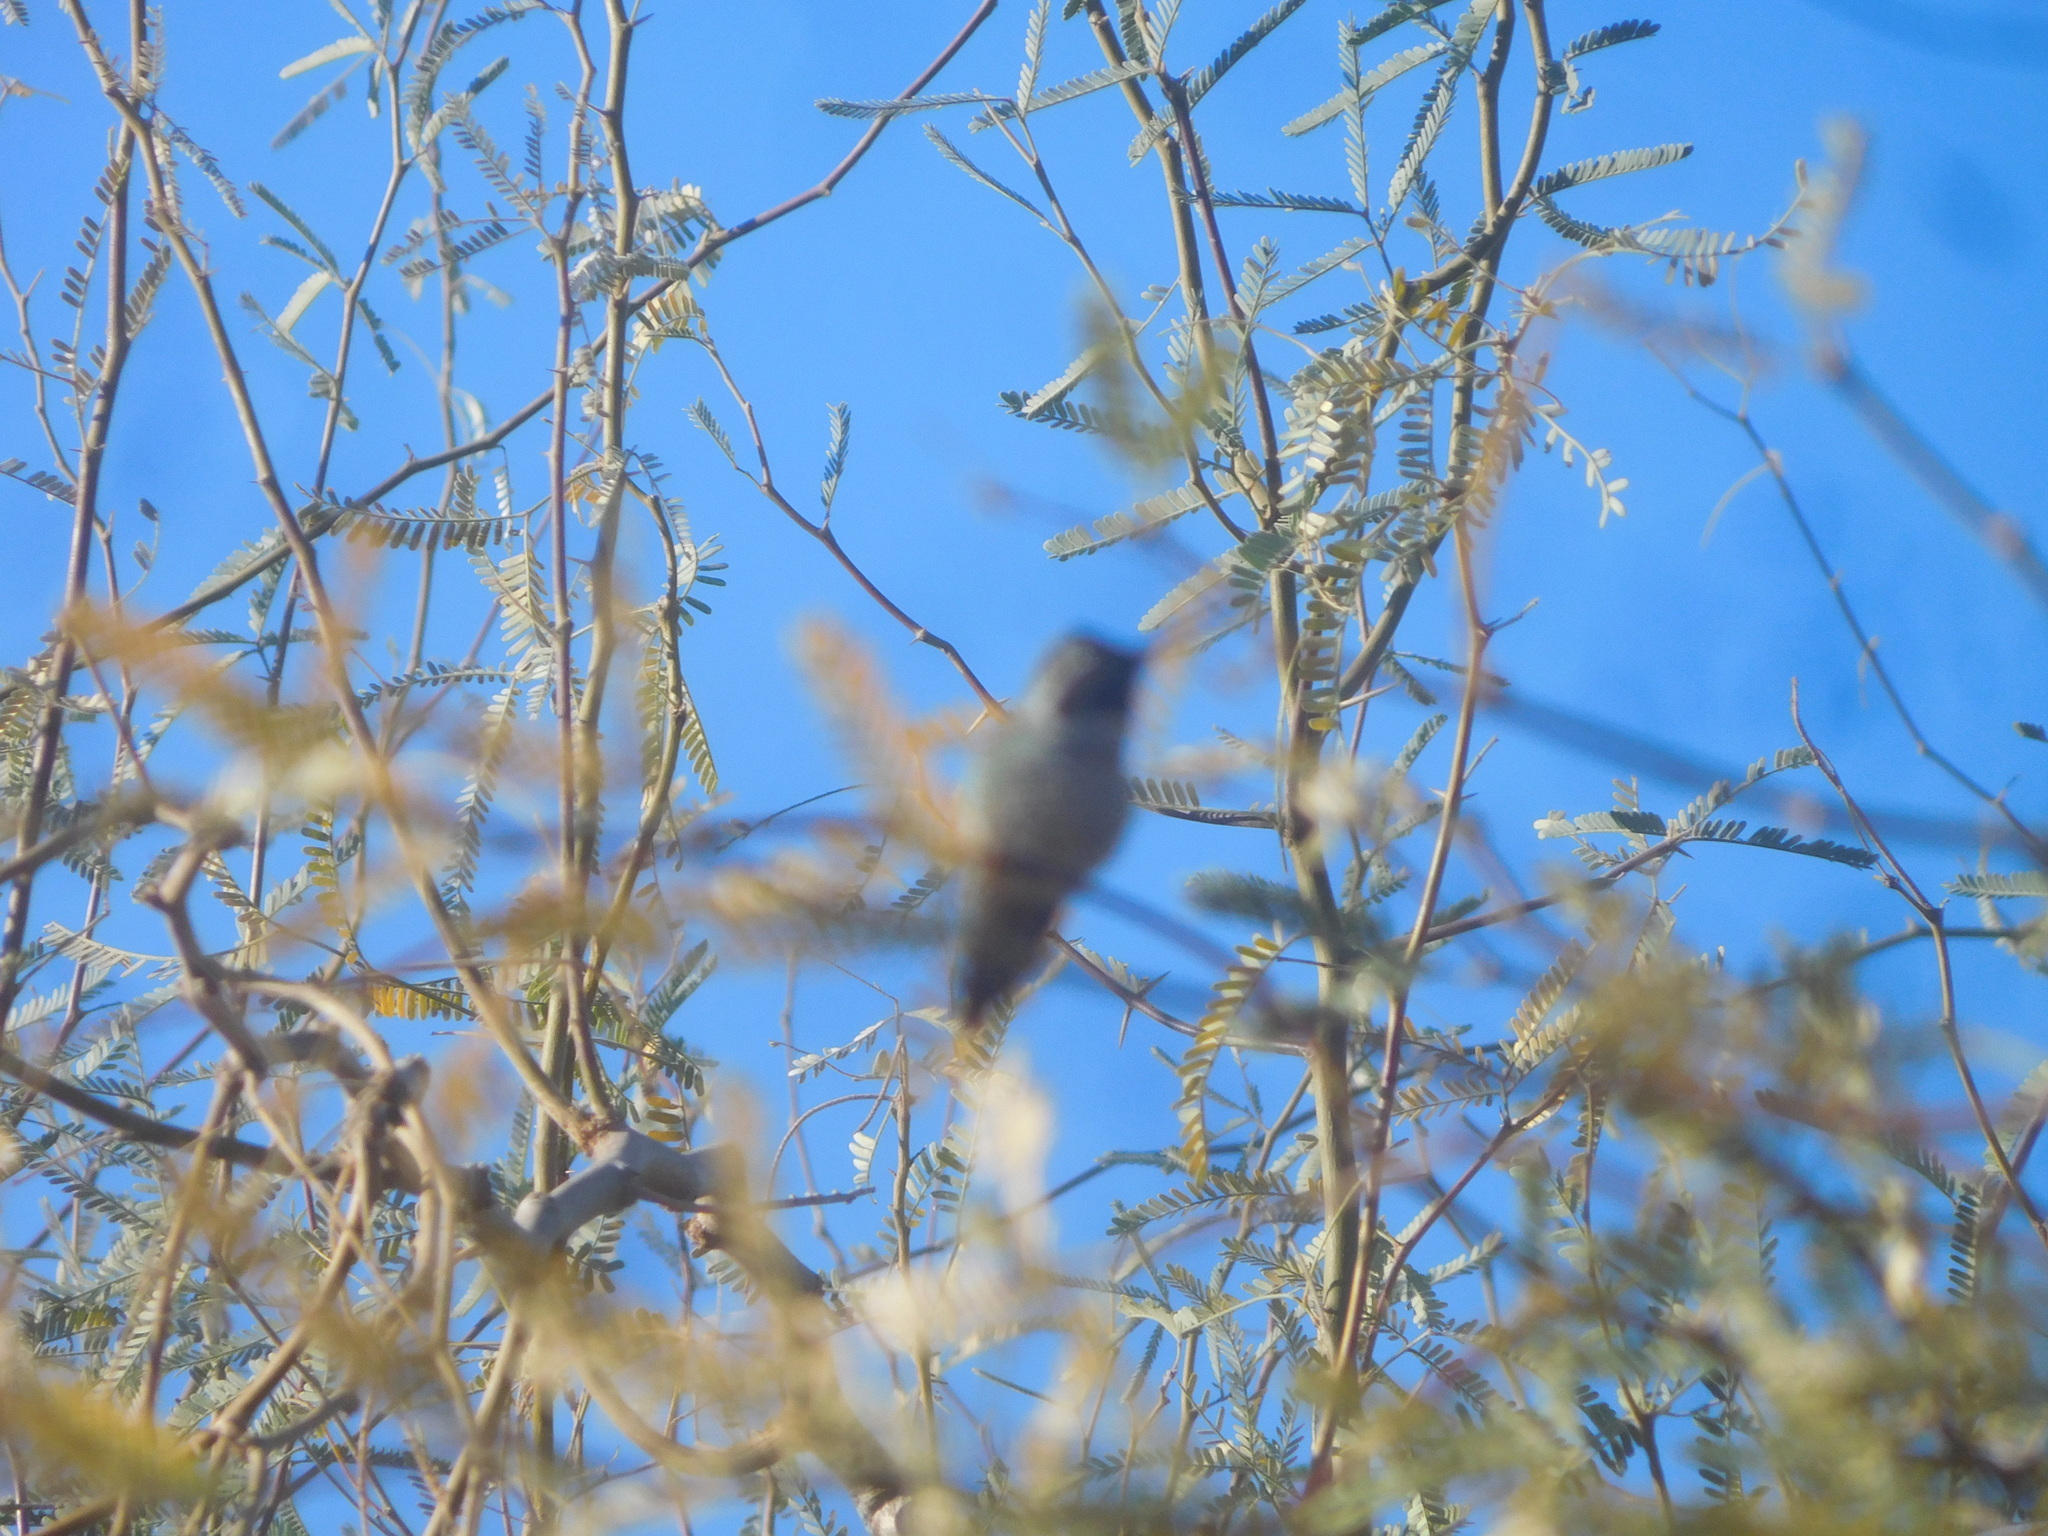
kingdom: Animalia
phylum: Chordata
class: Aves
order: Apodiformes
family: Trochilidae
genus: Calypte
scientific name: Calypte anna
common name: Anna's hummingbird
